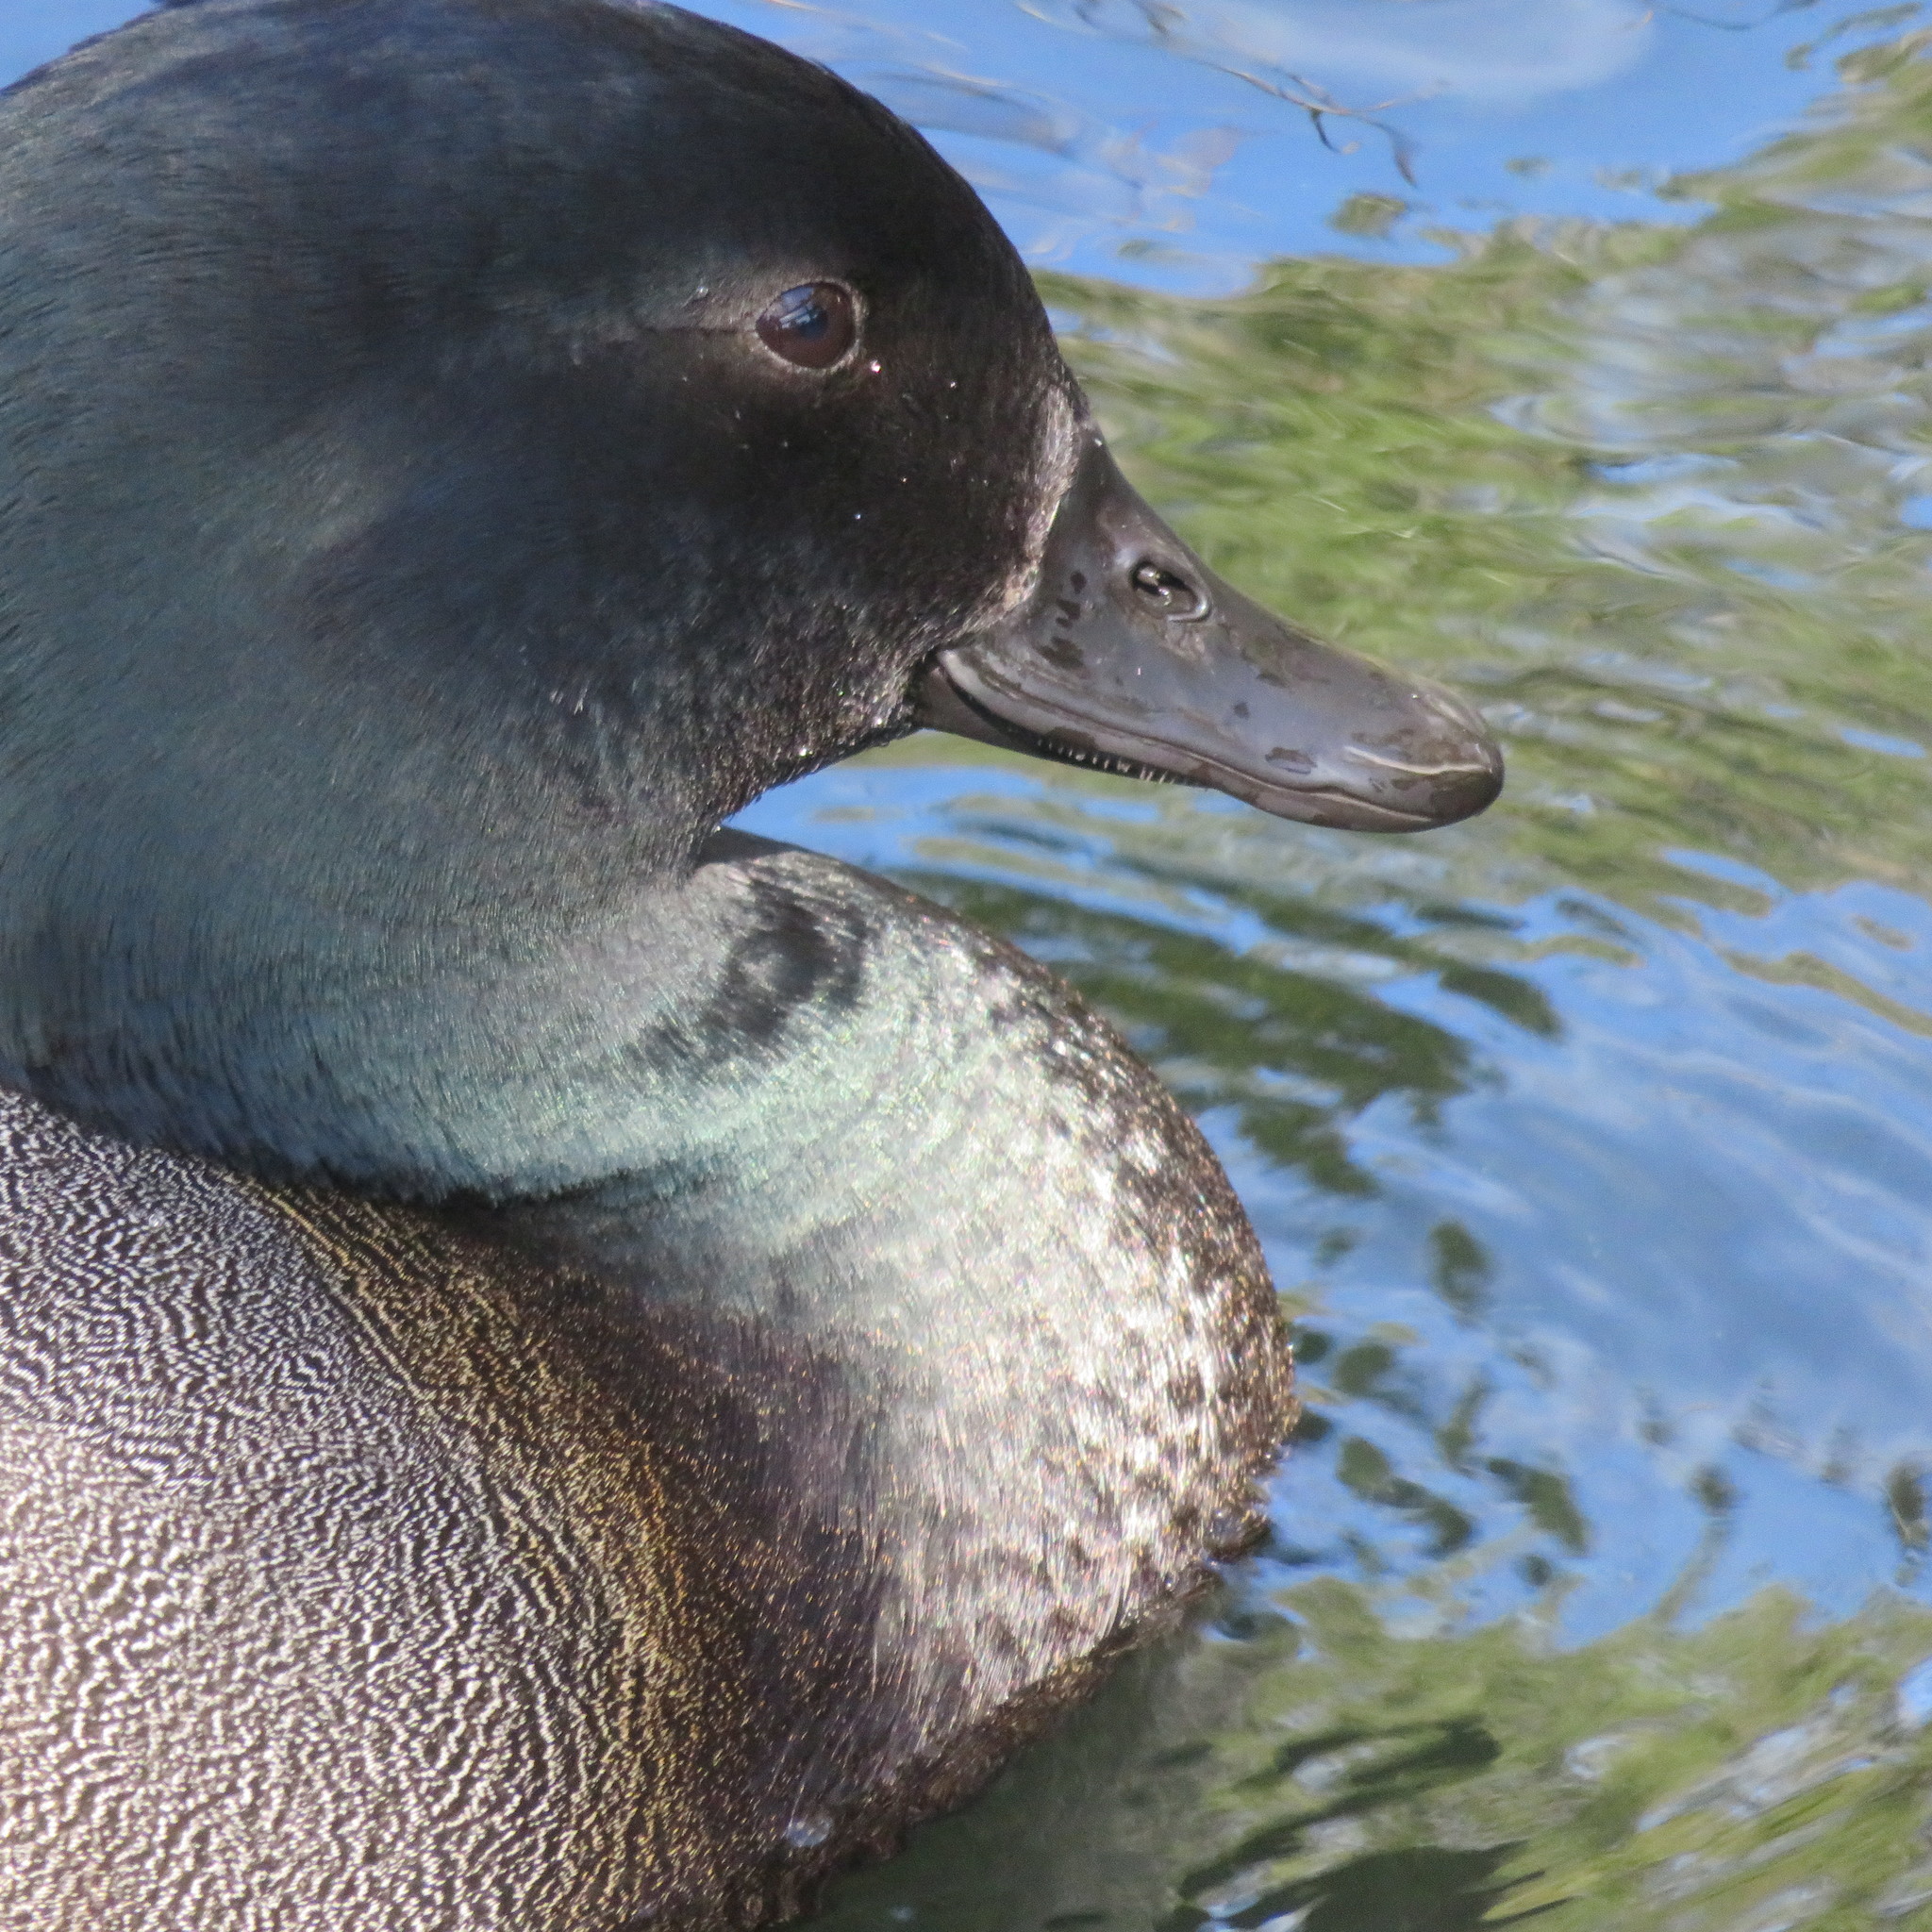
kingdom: Animalia
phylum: Chordata
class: Aves
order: Anseriformes
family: Anatidae
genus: Tadorna
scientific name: Tadorna variegata
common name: Paradise shelduck
